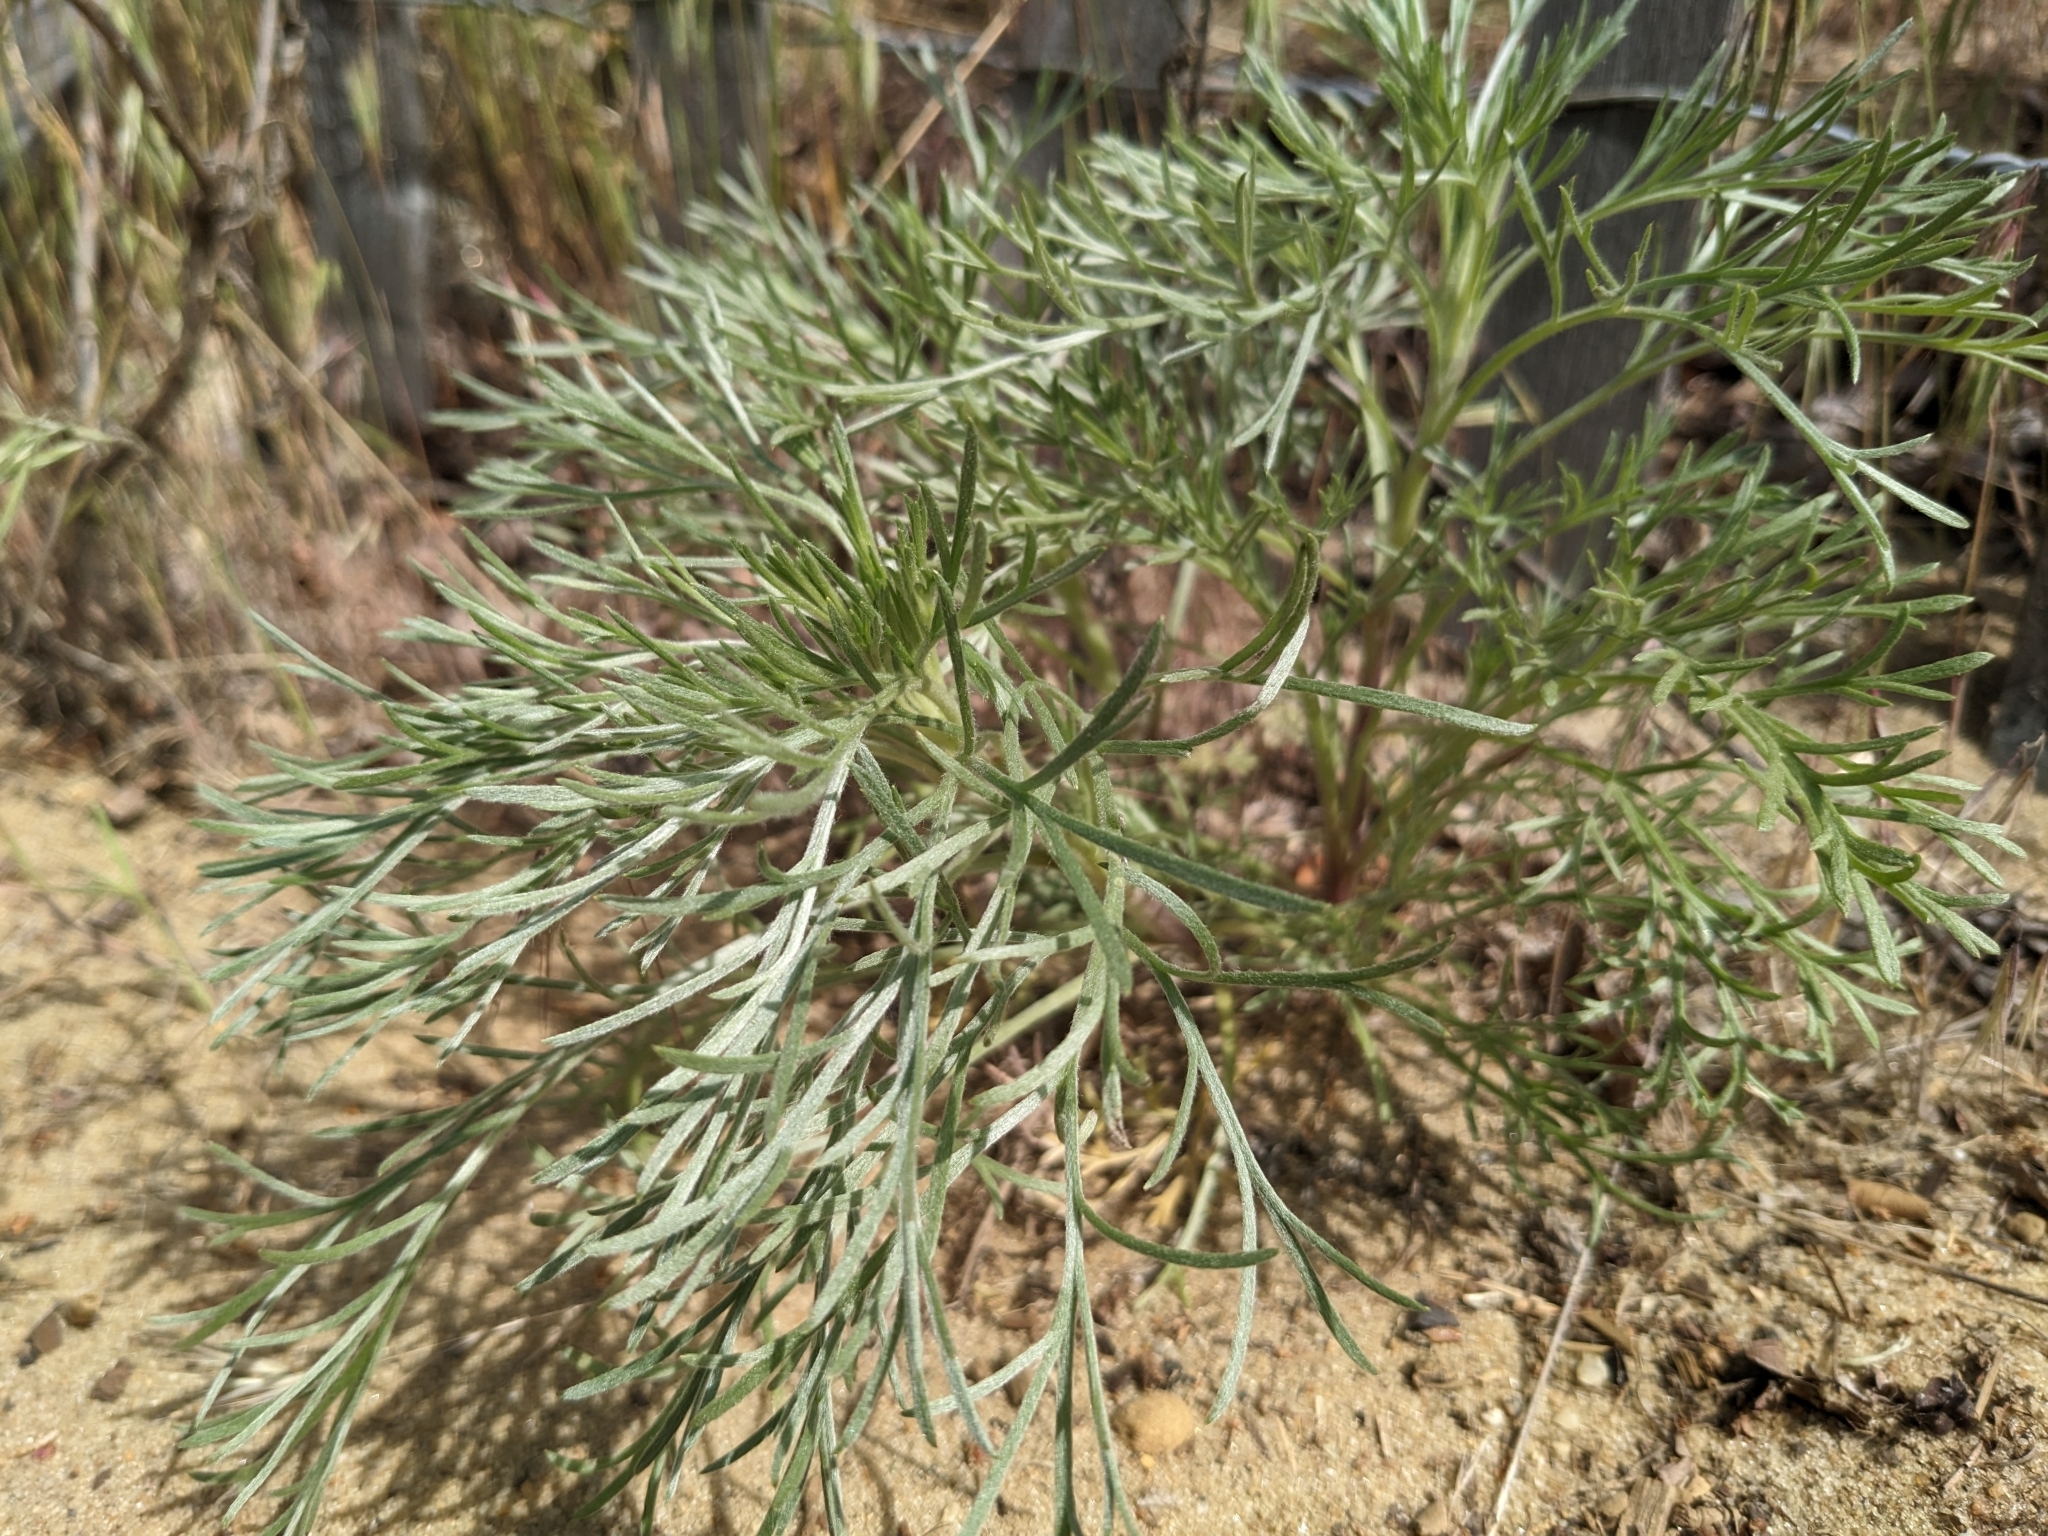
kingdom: Plantae
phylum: Tracheophyta
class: Magnoliopsida
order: Asterales
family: Asteraceae
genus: Artemisia
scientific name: Artemisia campestris
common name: Field wormwood
